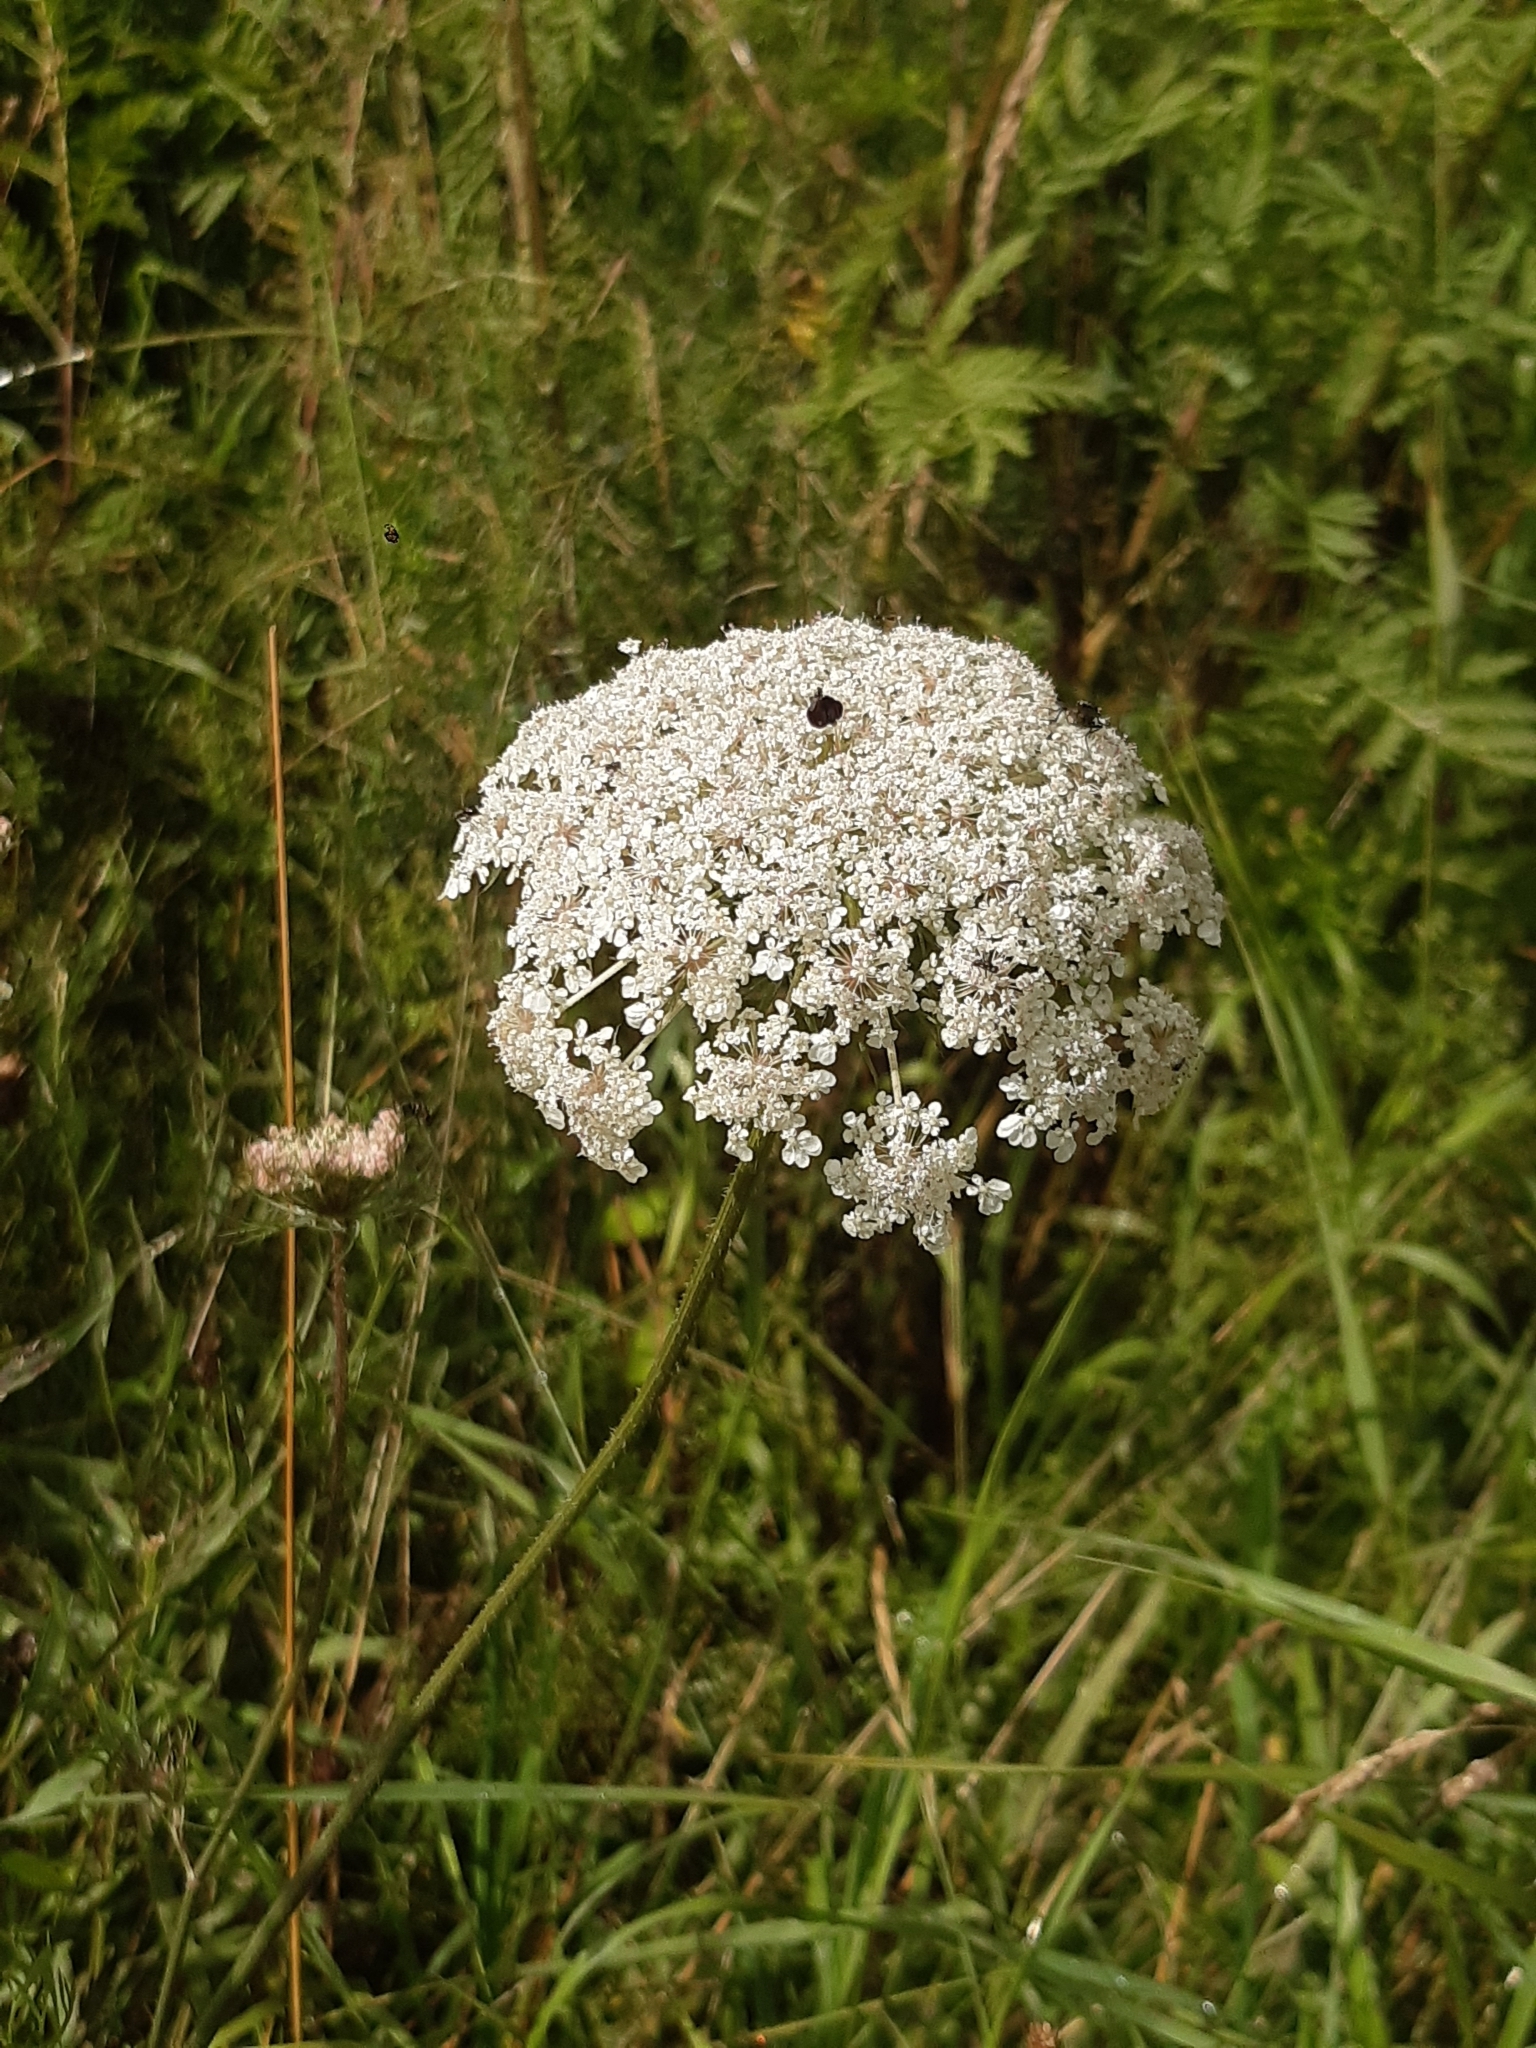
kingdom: Plantae
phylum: Tracheophyta
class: Magnoliopsida
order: Apiales
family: Apiaceae
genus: Daucus
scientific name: Daucus carota
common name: Wild carrot
